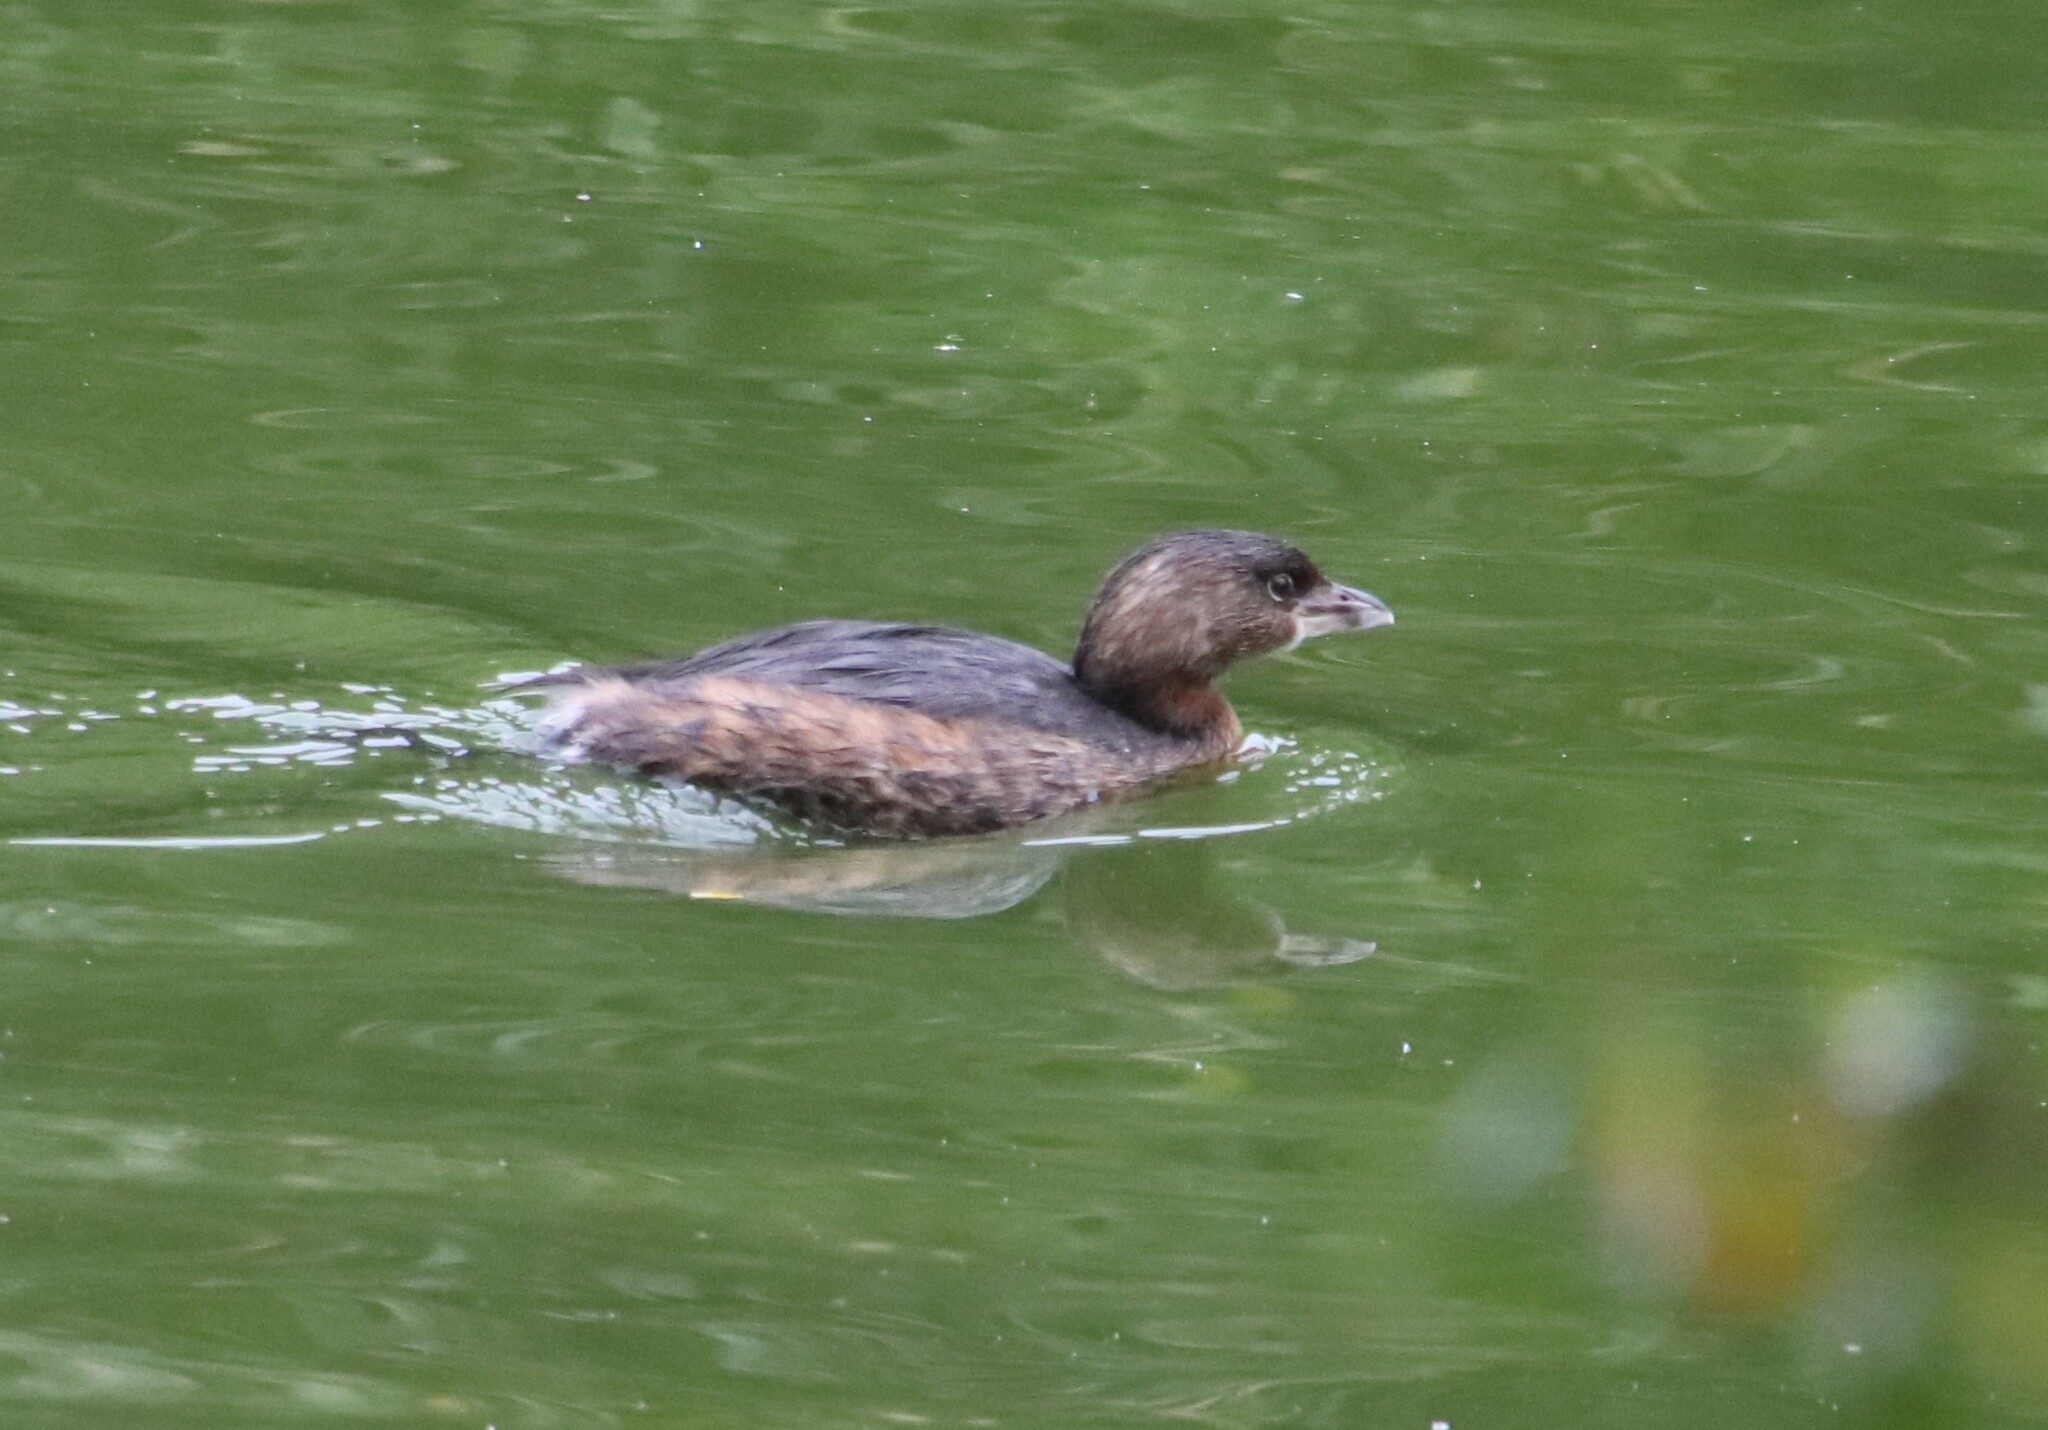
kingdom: Animalia
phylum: Chordata
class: Aves
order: Podicipediformes
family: Podicipedidae
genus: Podilymbus
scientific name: Podilymbus podiceps
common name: Pied-billed grebe
